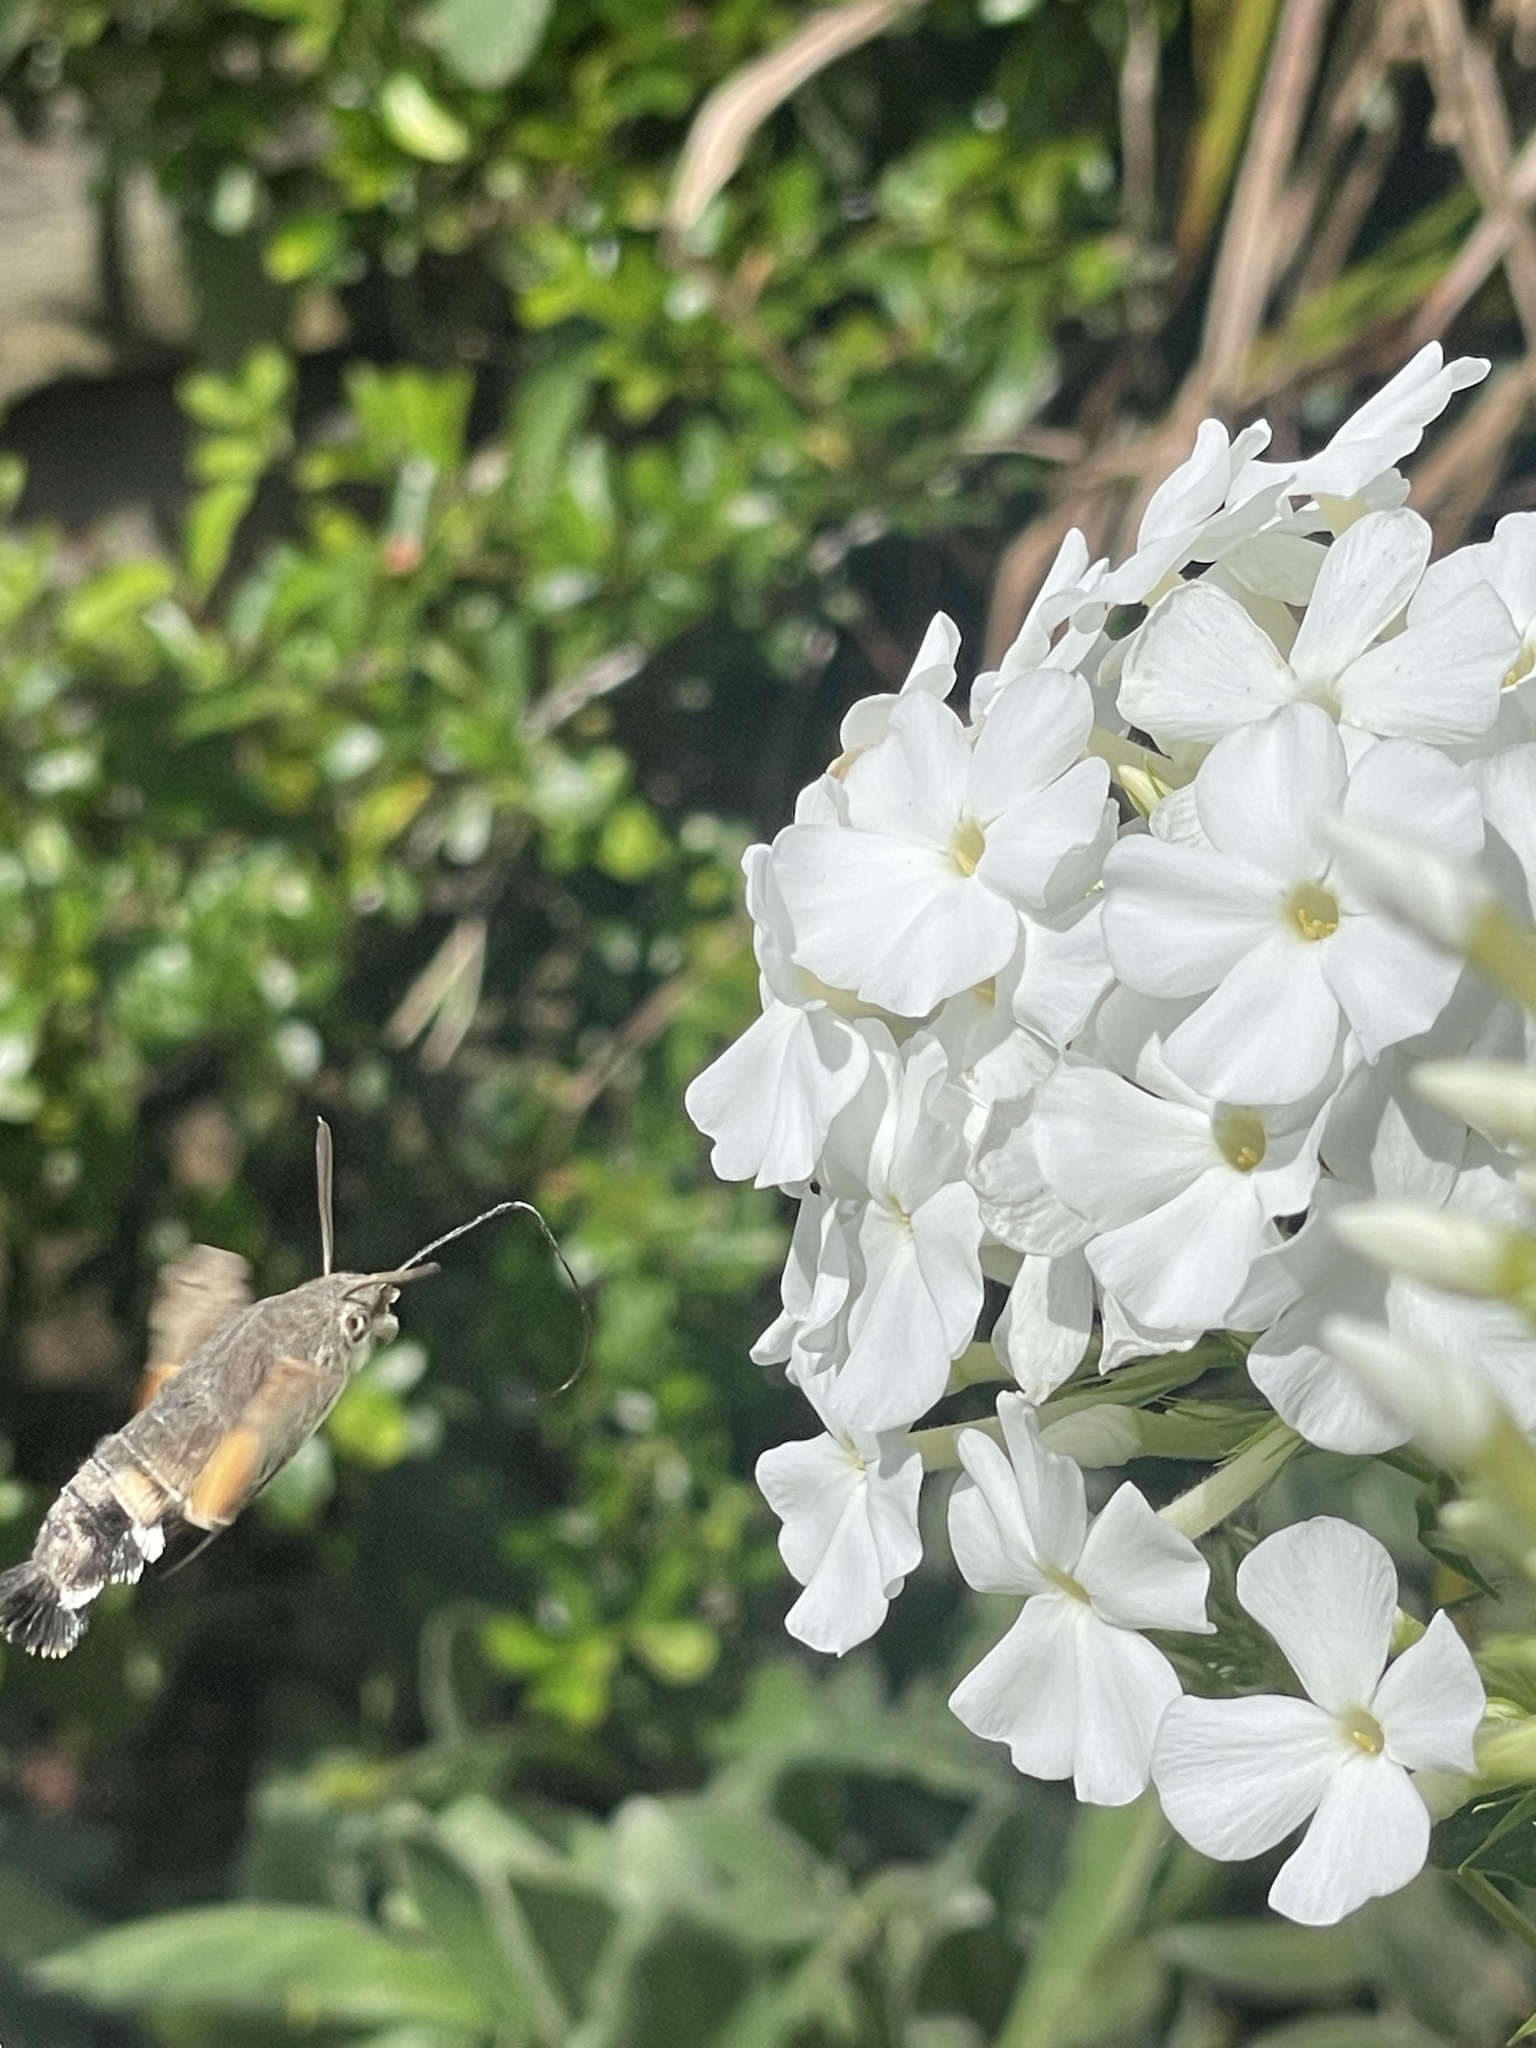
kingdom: Animalia
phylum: Arthropoda
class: Insecta
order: Lepidoptera
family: Sphingidae
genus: Macroglossum
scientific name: Macroglossum stellatarum
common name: Humming-bird hawk-moth
